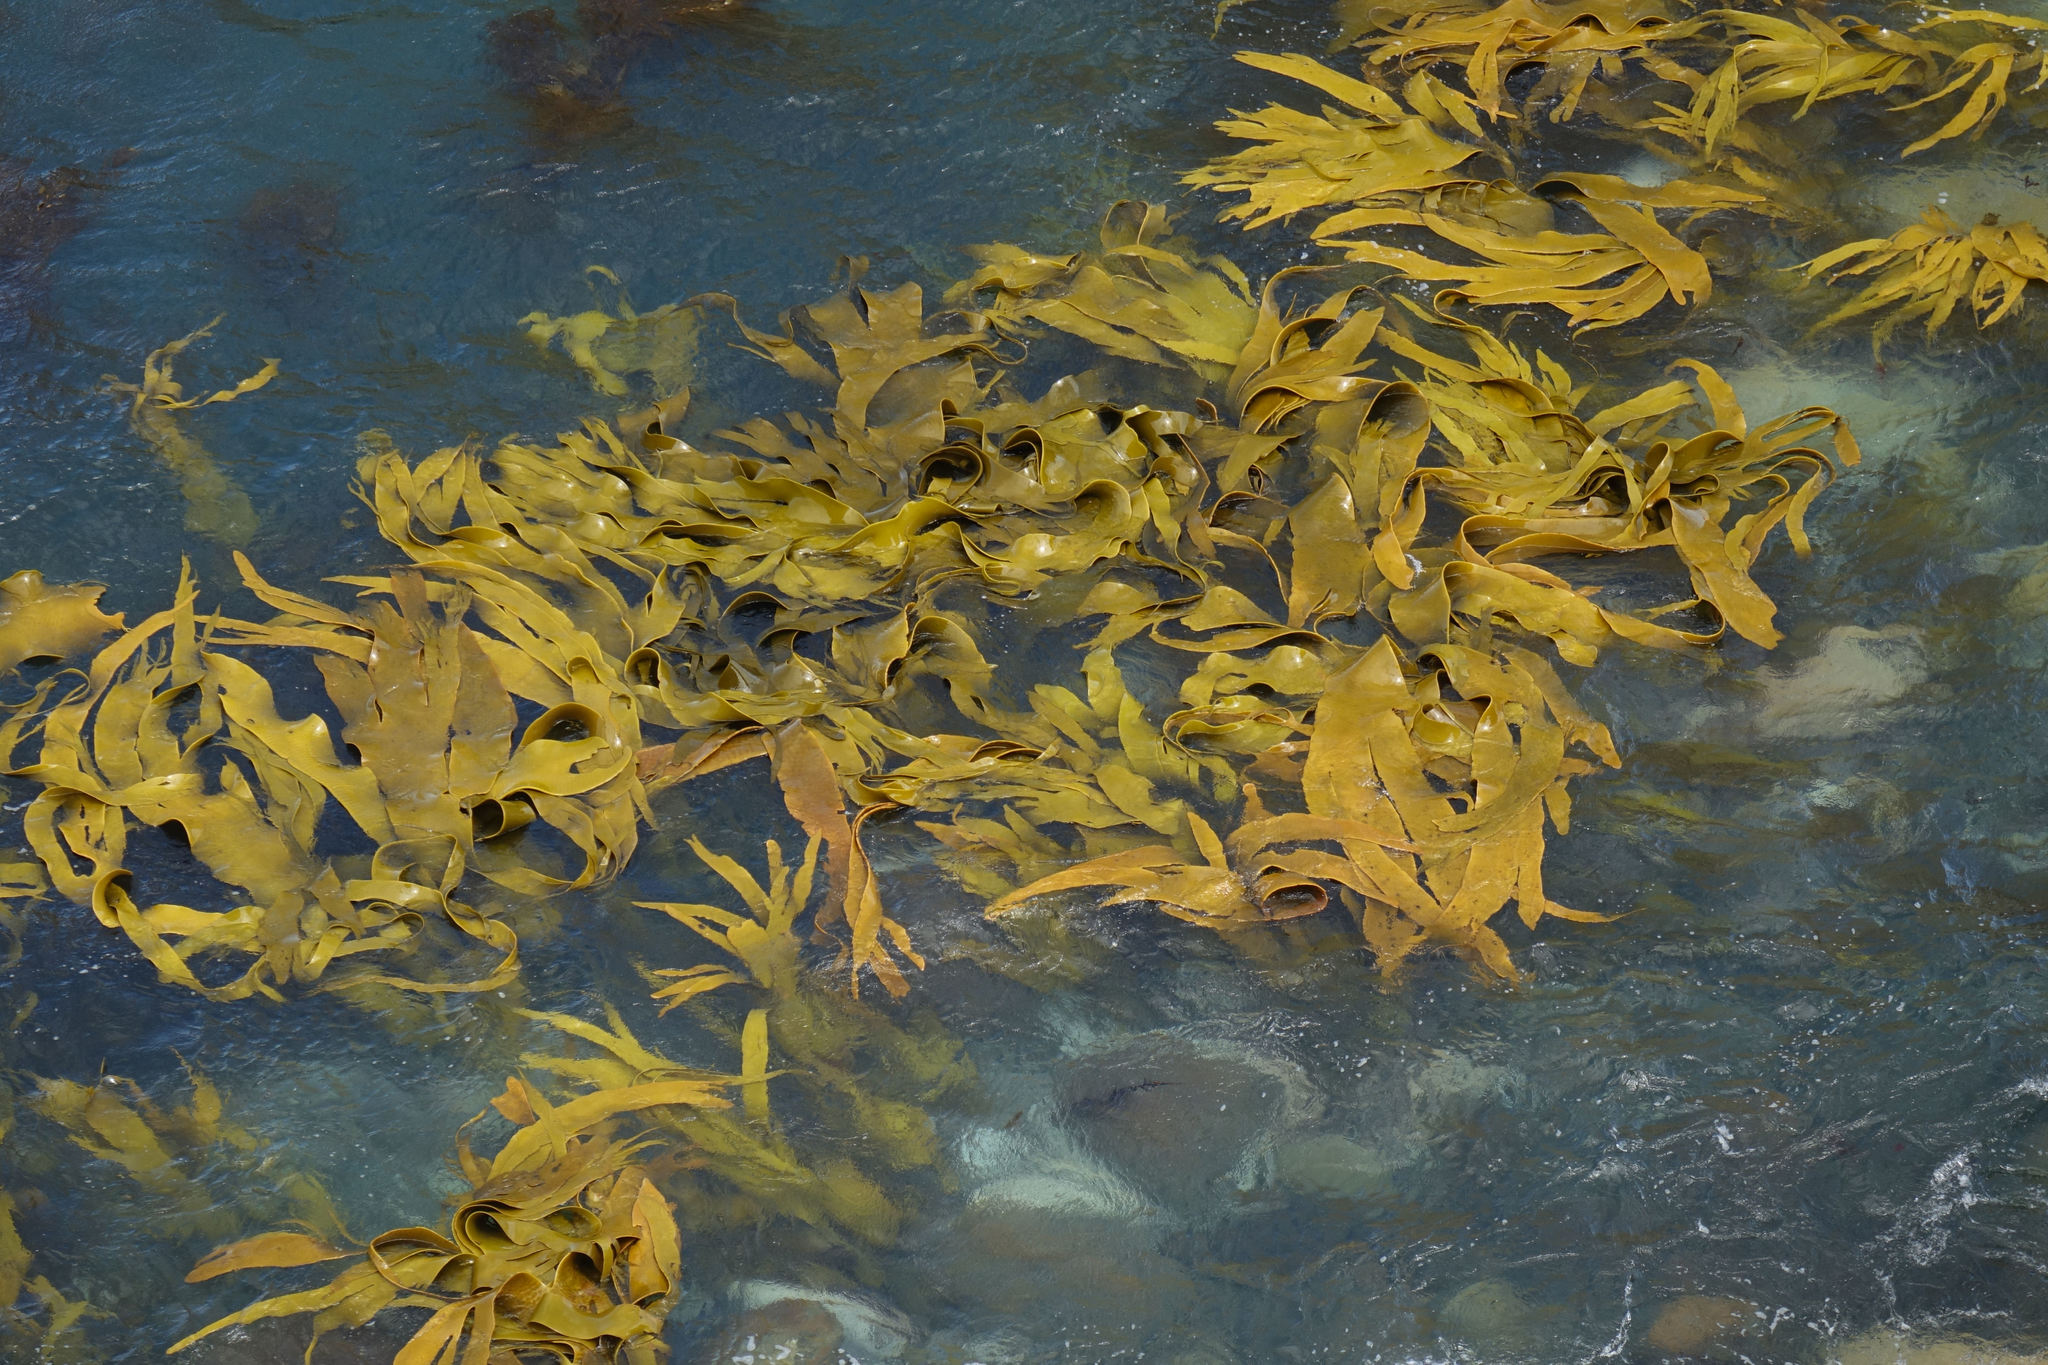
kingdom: Chromista
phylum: Ochrophyta
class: Phaeophyceae
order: Fucales
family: Durvillaeaceae
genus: Durvillaea
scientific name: Durvillaea poha
